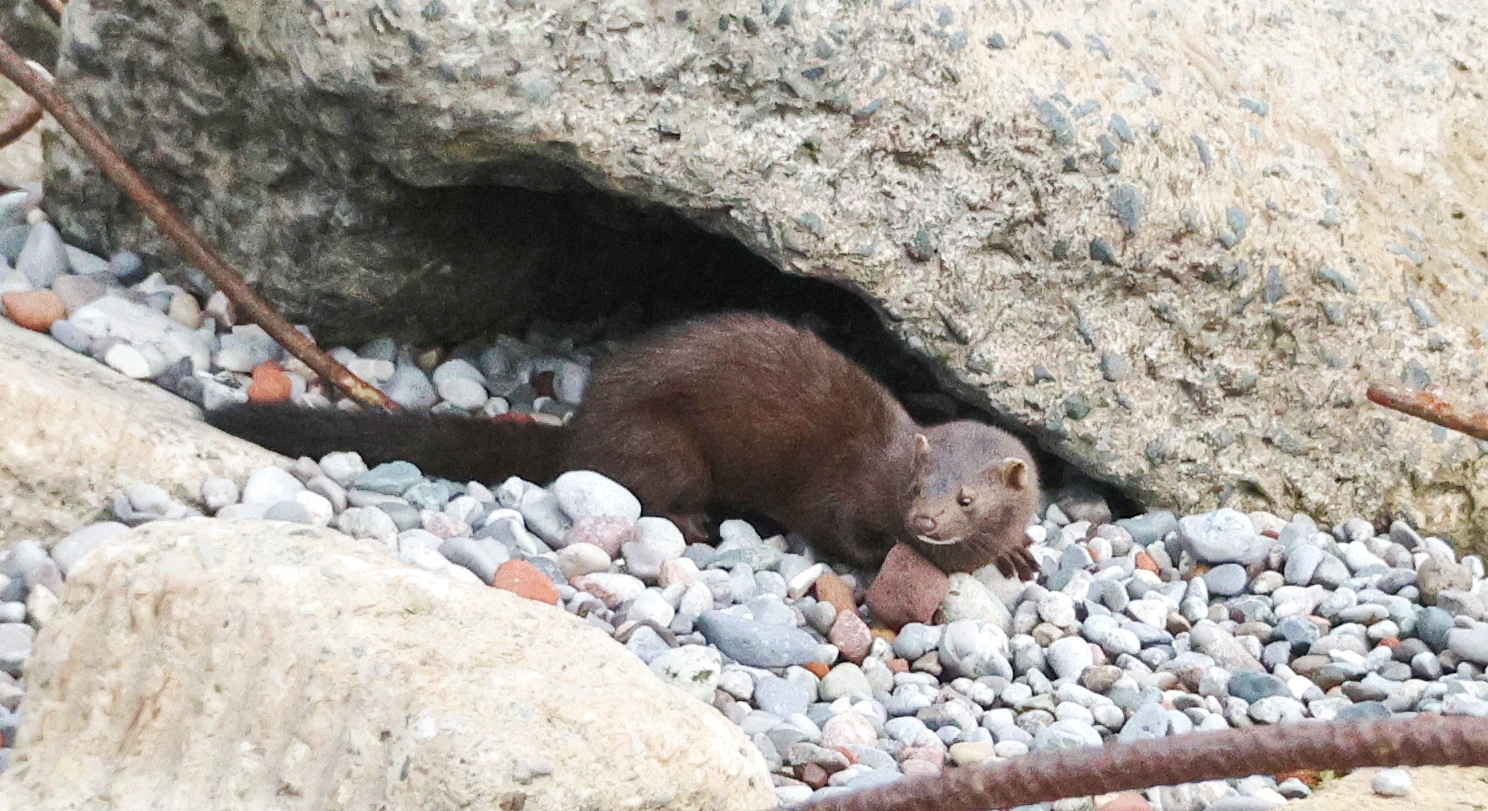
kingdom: Animalia
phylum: Chordata
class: Mammalia
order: Carnivora
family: Mustelidae
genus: Mustela
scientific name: Mustela
